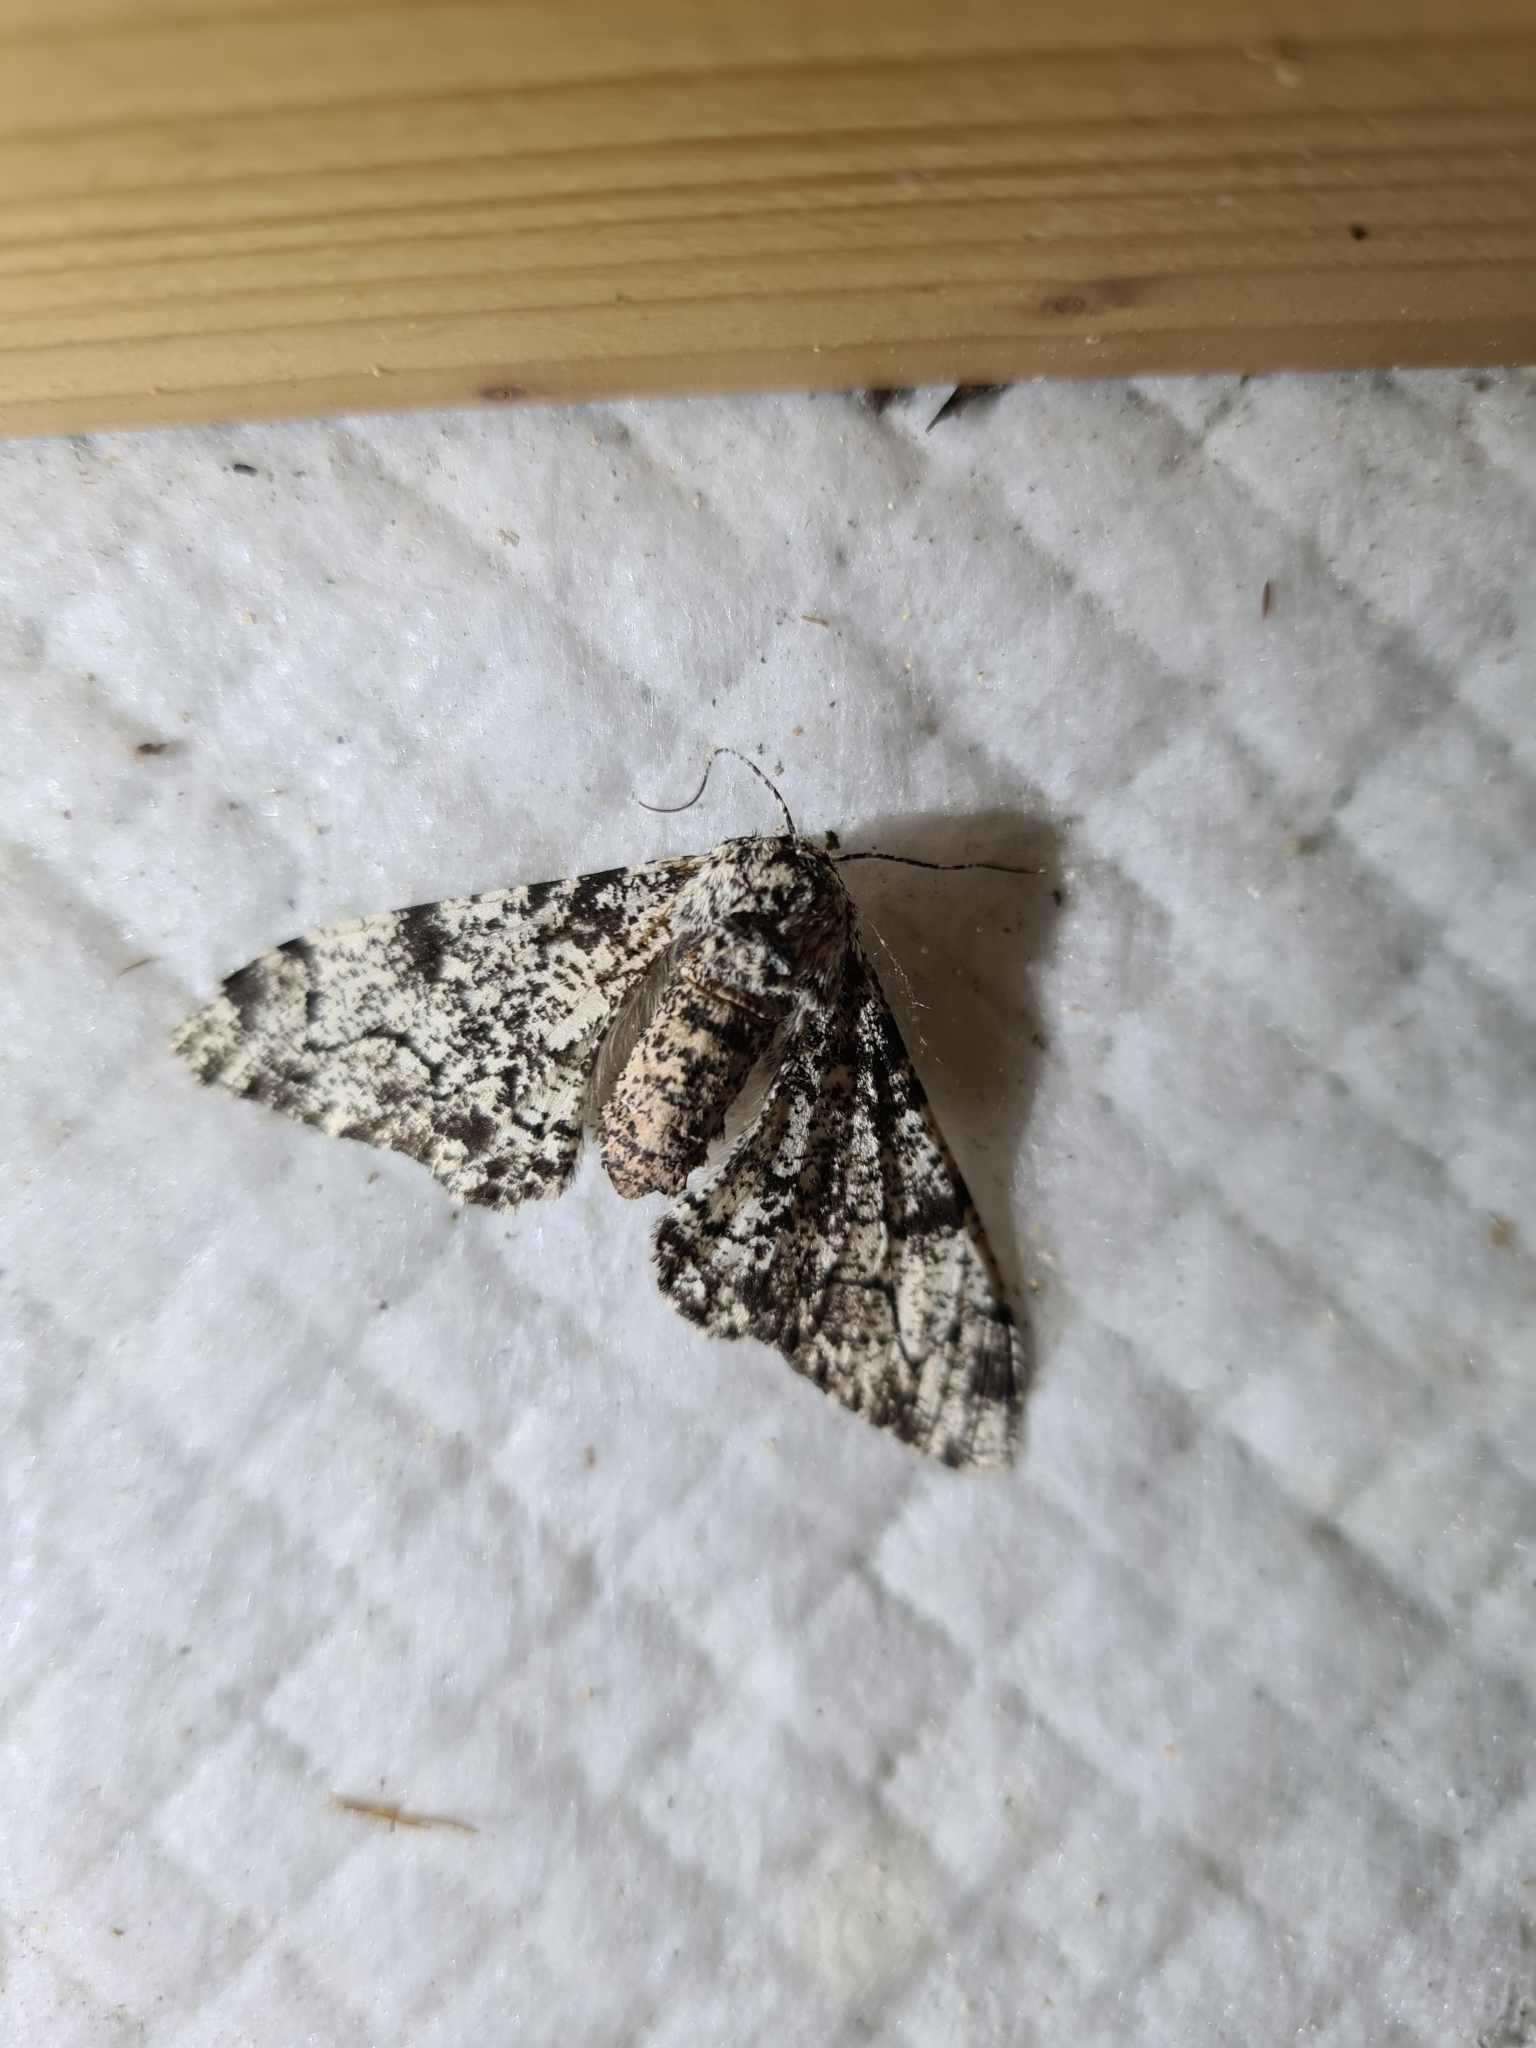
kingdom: Animalia
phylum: Arthropoda
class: Insecta
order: Lepidoptera
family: Geometridae
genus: Biston
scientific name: Biston betularia
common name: Peppered moth
